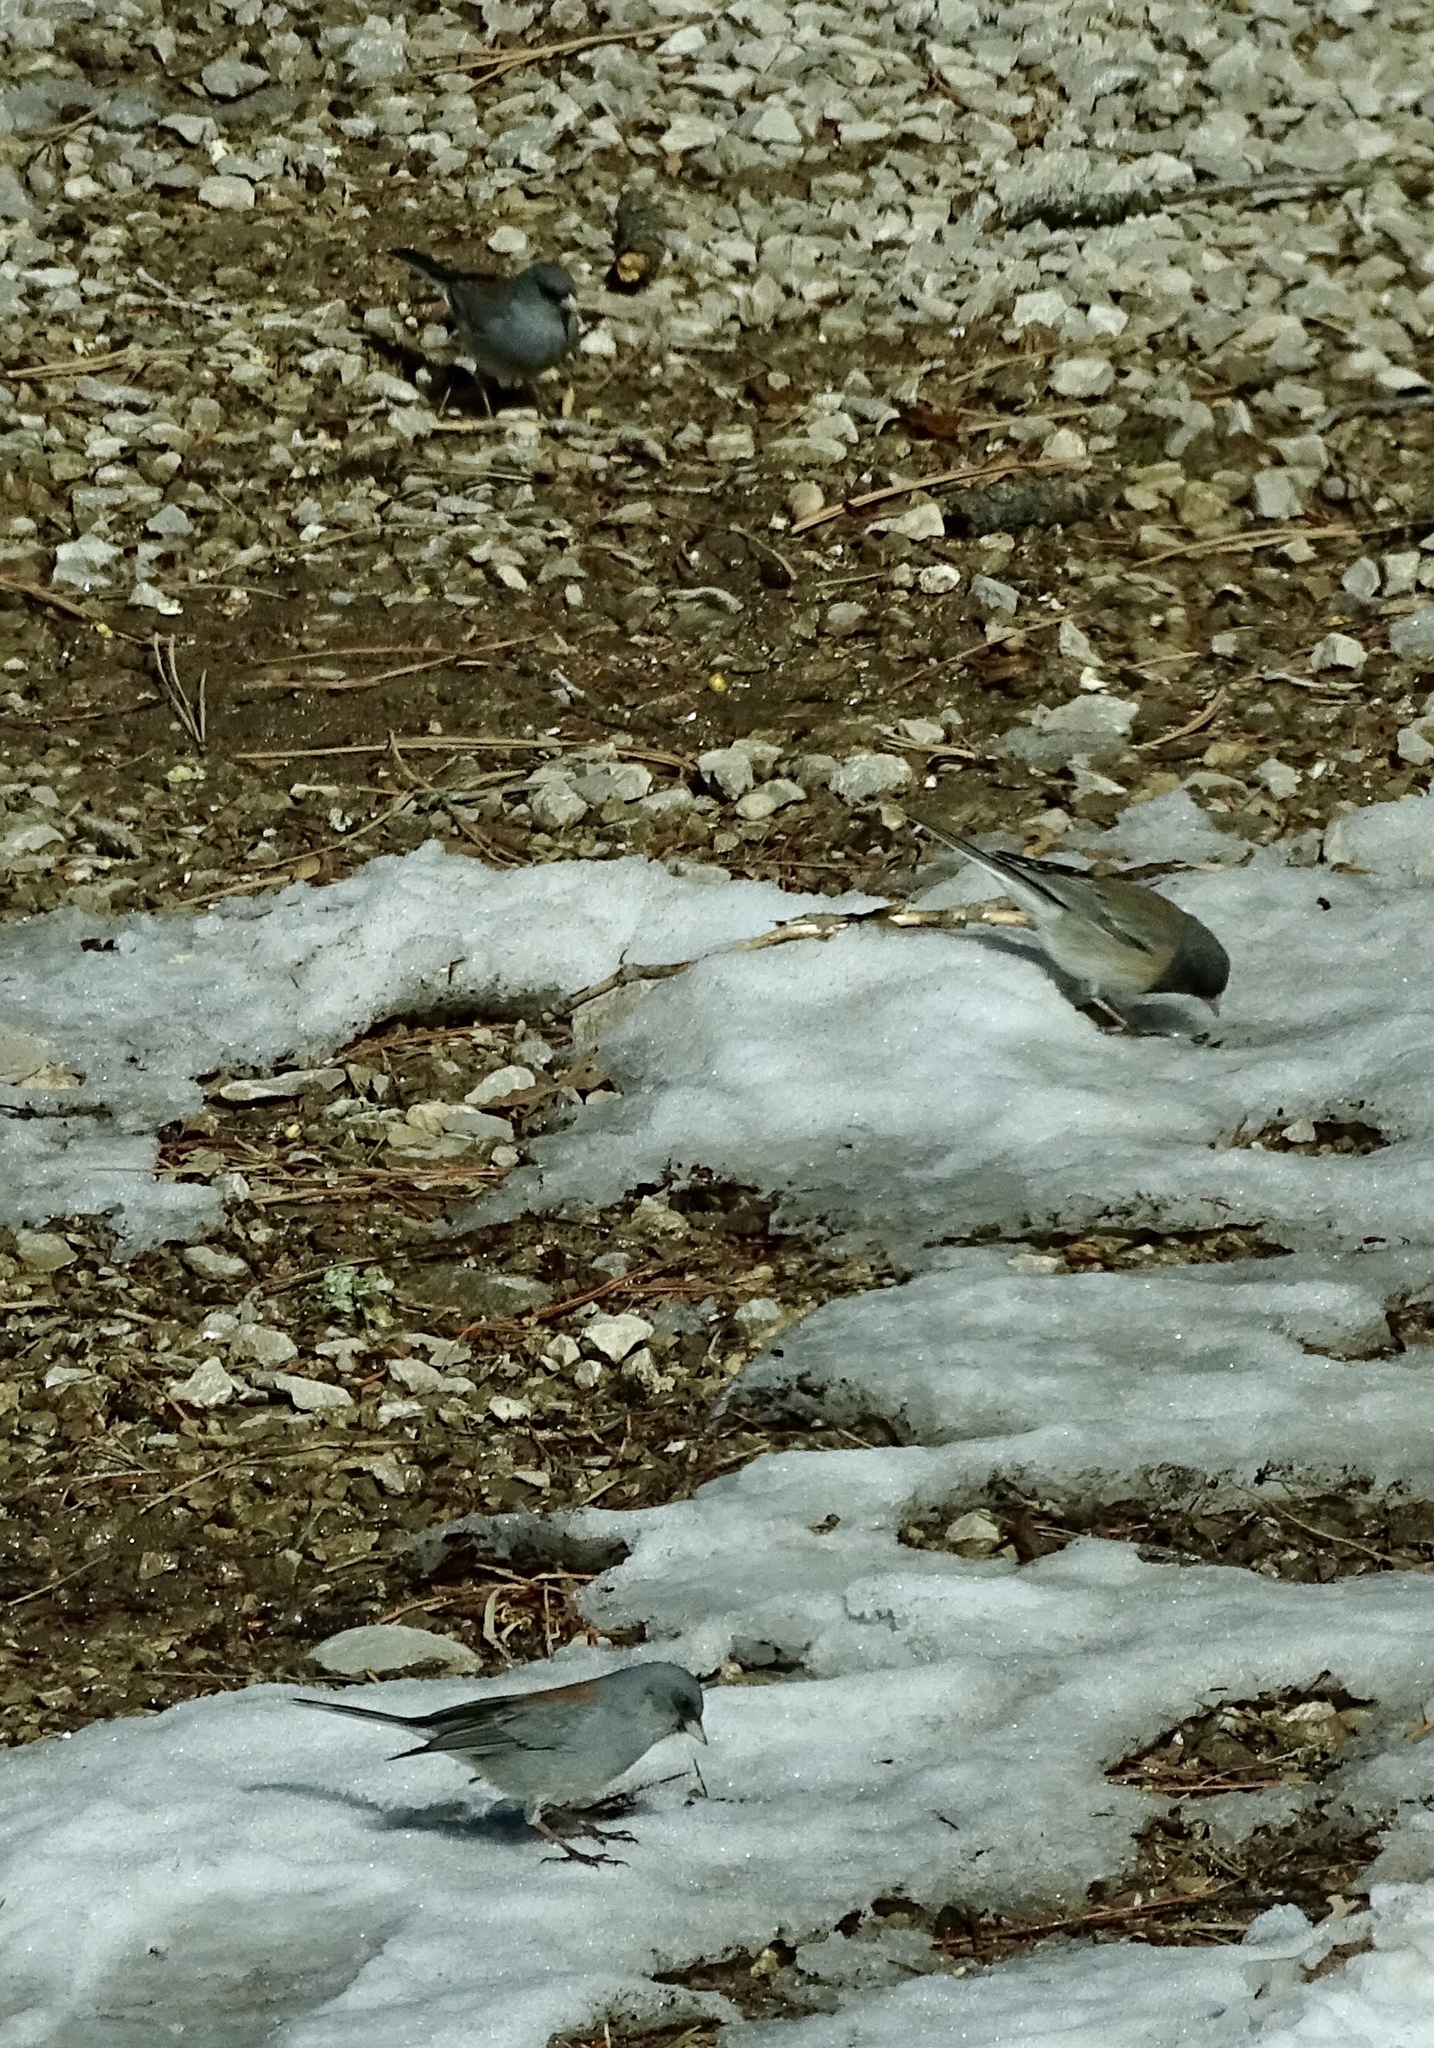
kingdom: Animalia
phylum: Chordata
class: Aves
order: Passeriformes
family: Passerellidae
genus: Junco
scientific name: Junco hyemalis
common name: Dark-eyed junco
